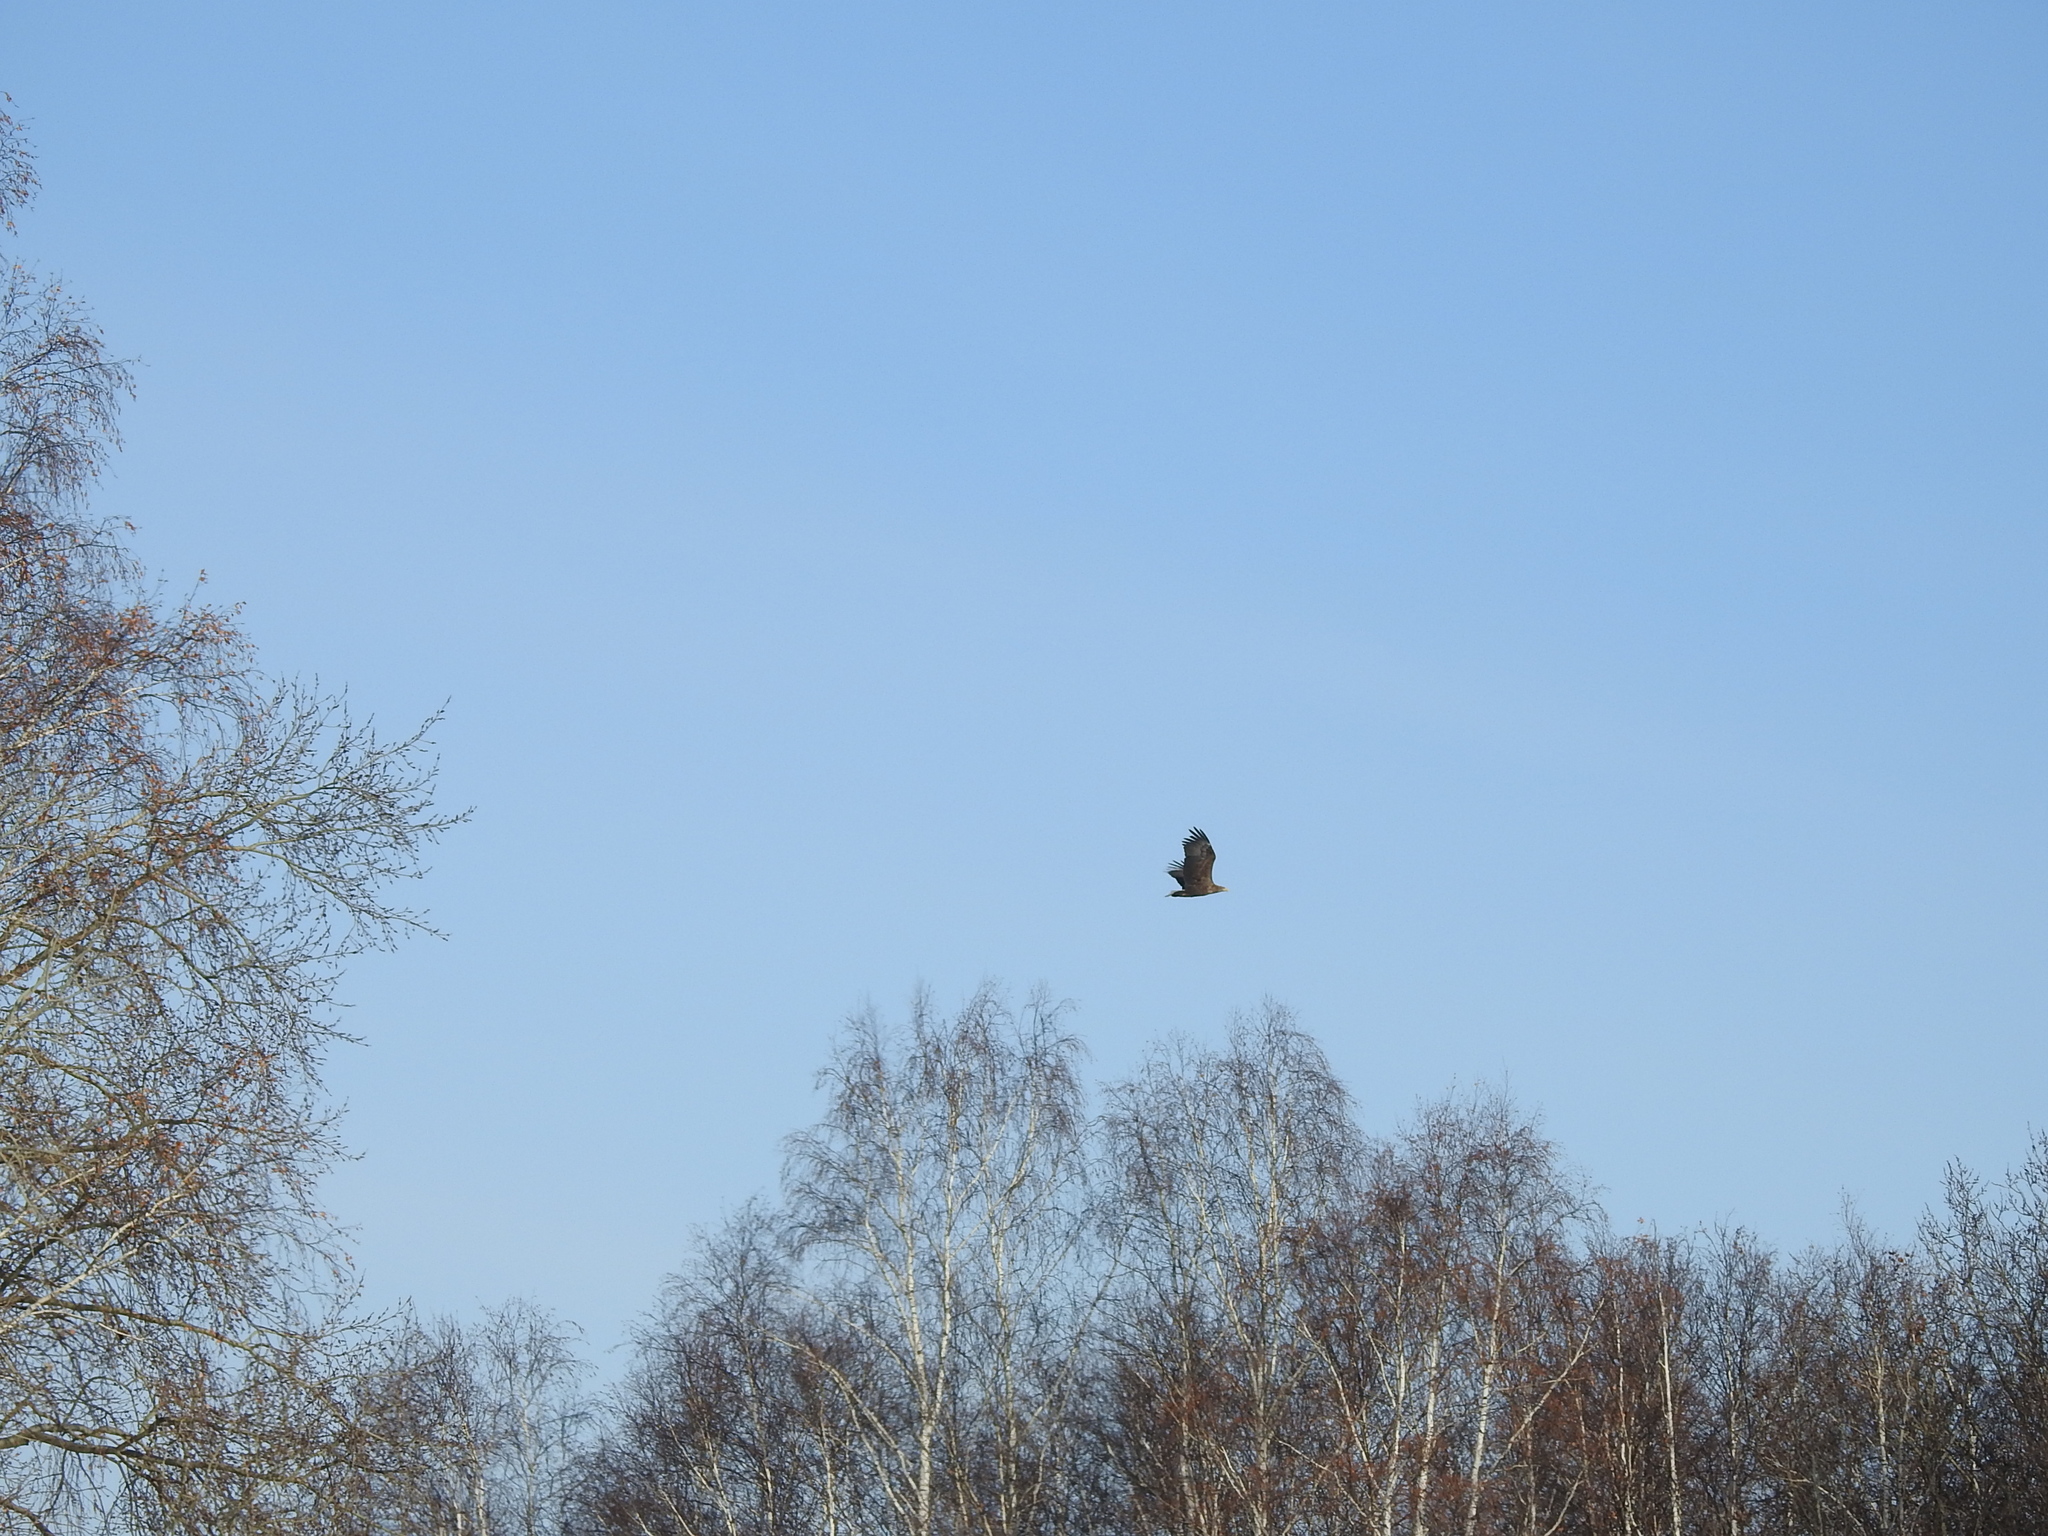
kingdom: Animalia
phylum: Chordata
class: Aves
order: Accipitriformes
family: Accipitridae
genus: Haliaeetus
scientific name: Haliaeetus albicilla
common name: White-tailed eagle
